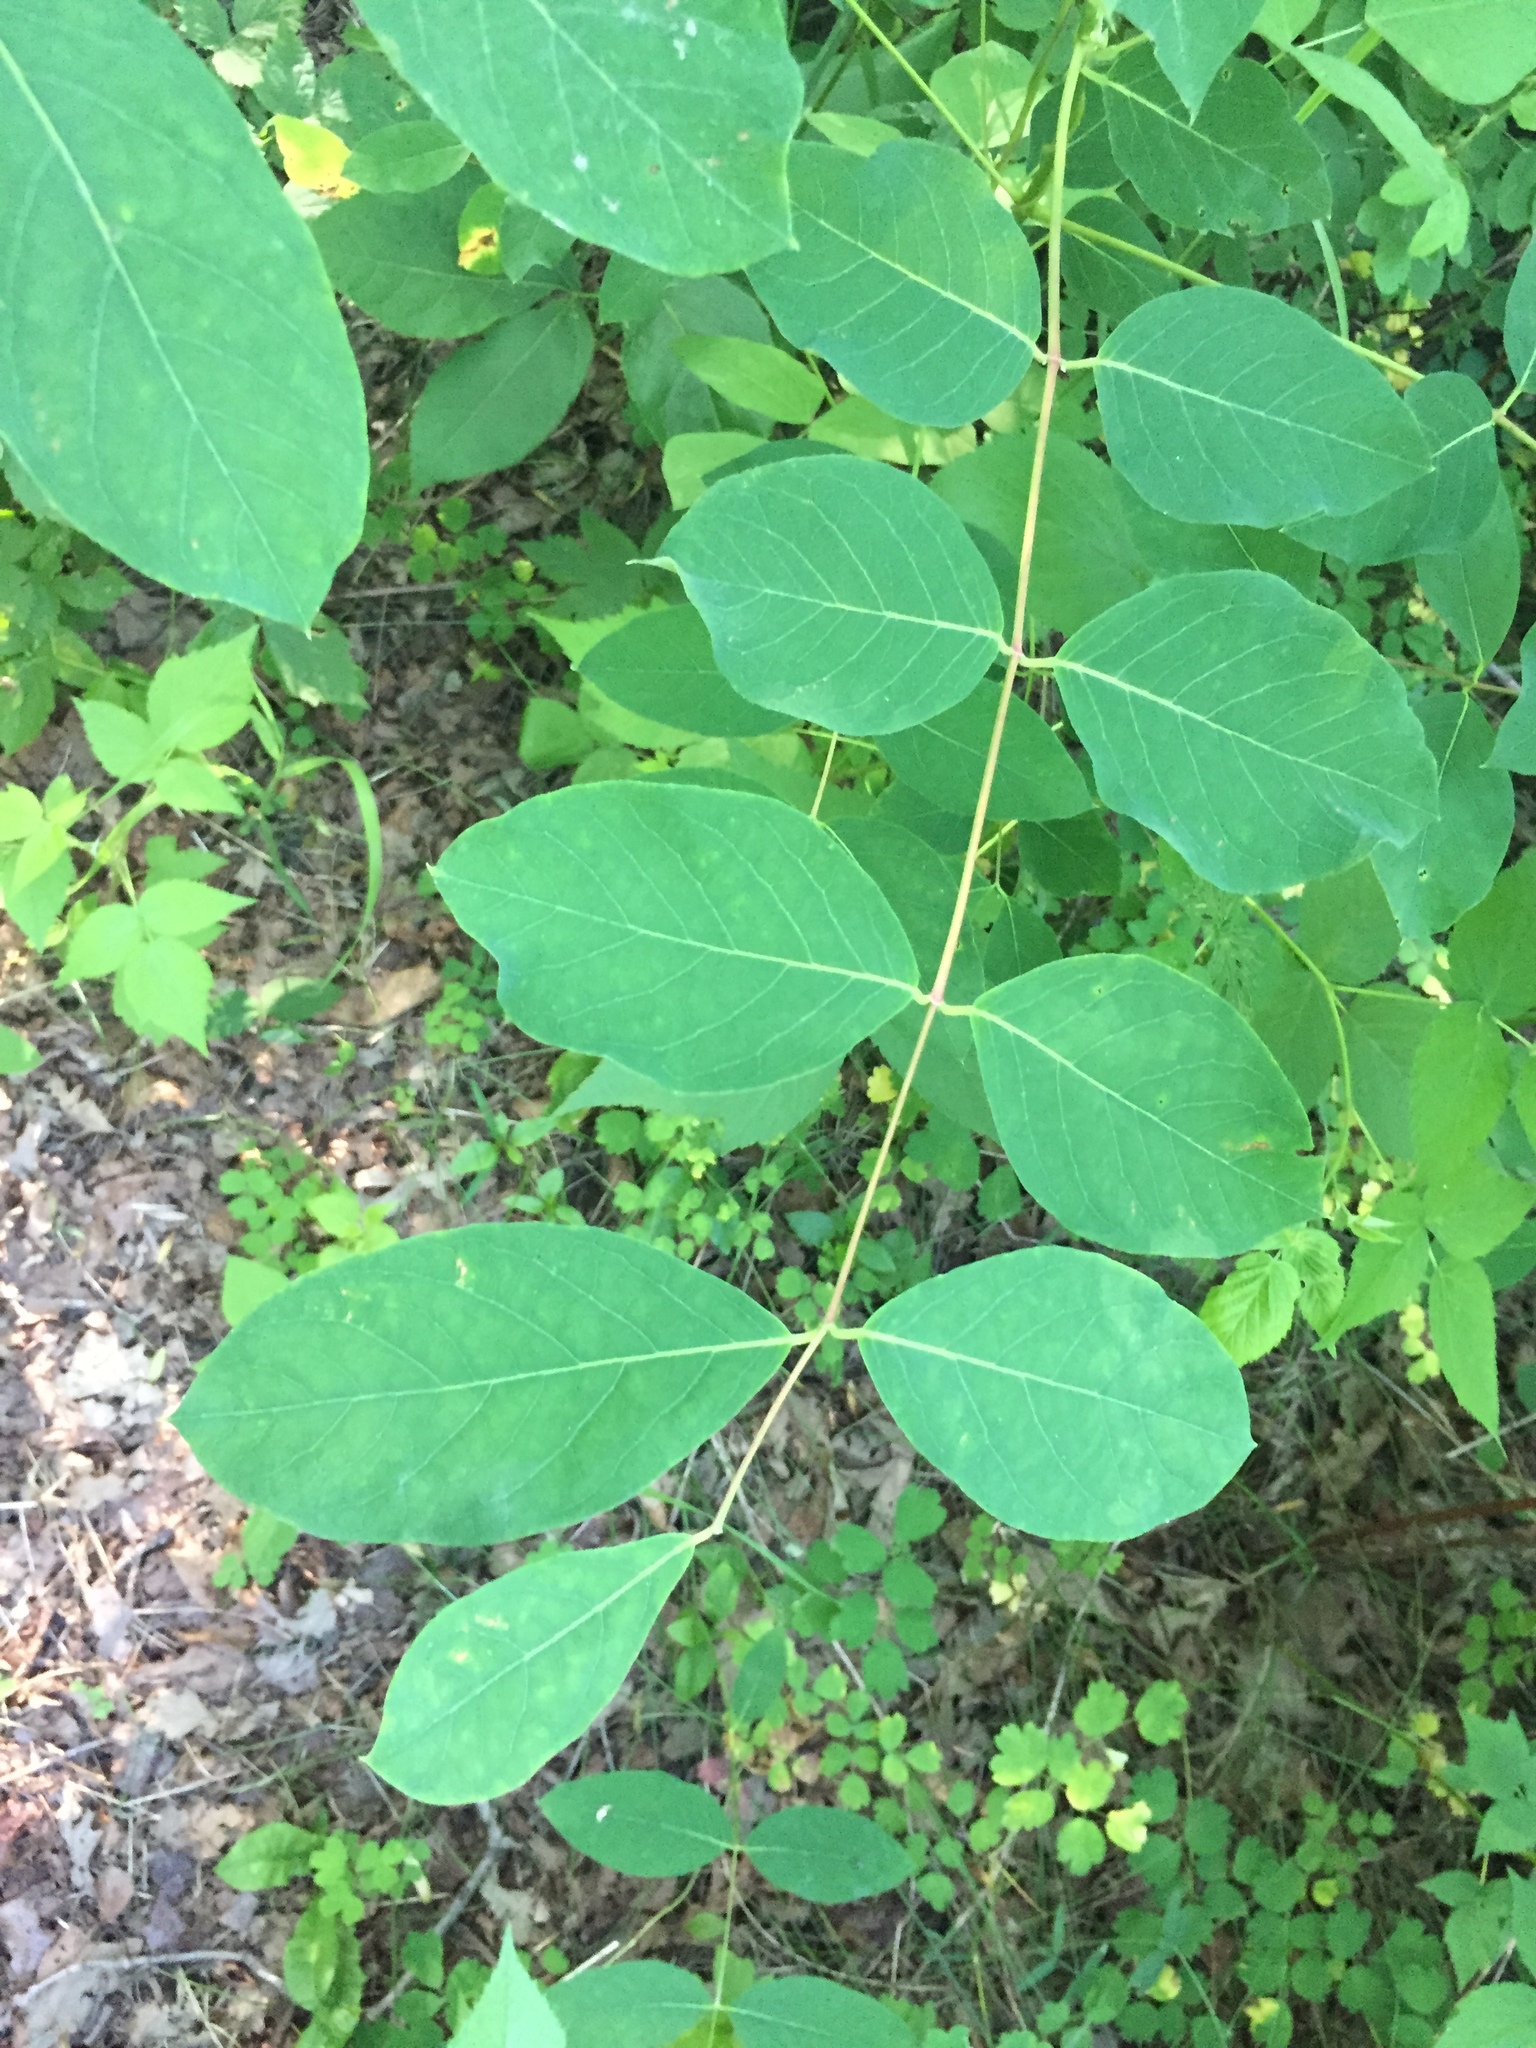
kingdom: Plantae
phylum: Tracheophyta
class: Magnoliopsida
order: Gentianales
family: Apocynaceae
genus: Apocynum
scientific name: Apocynum androsaemifolium
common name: Spreading dogbane
